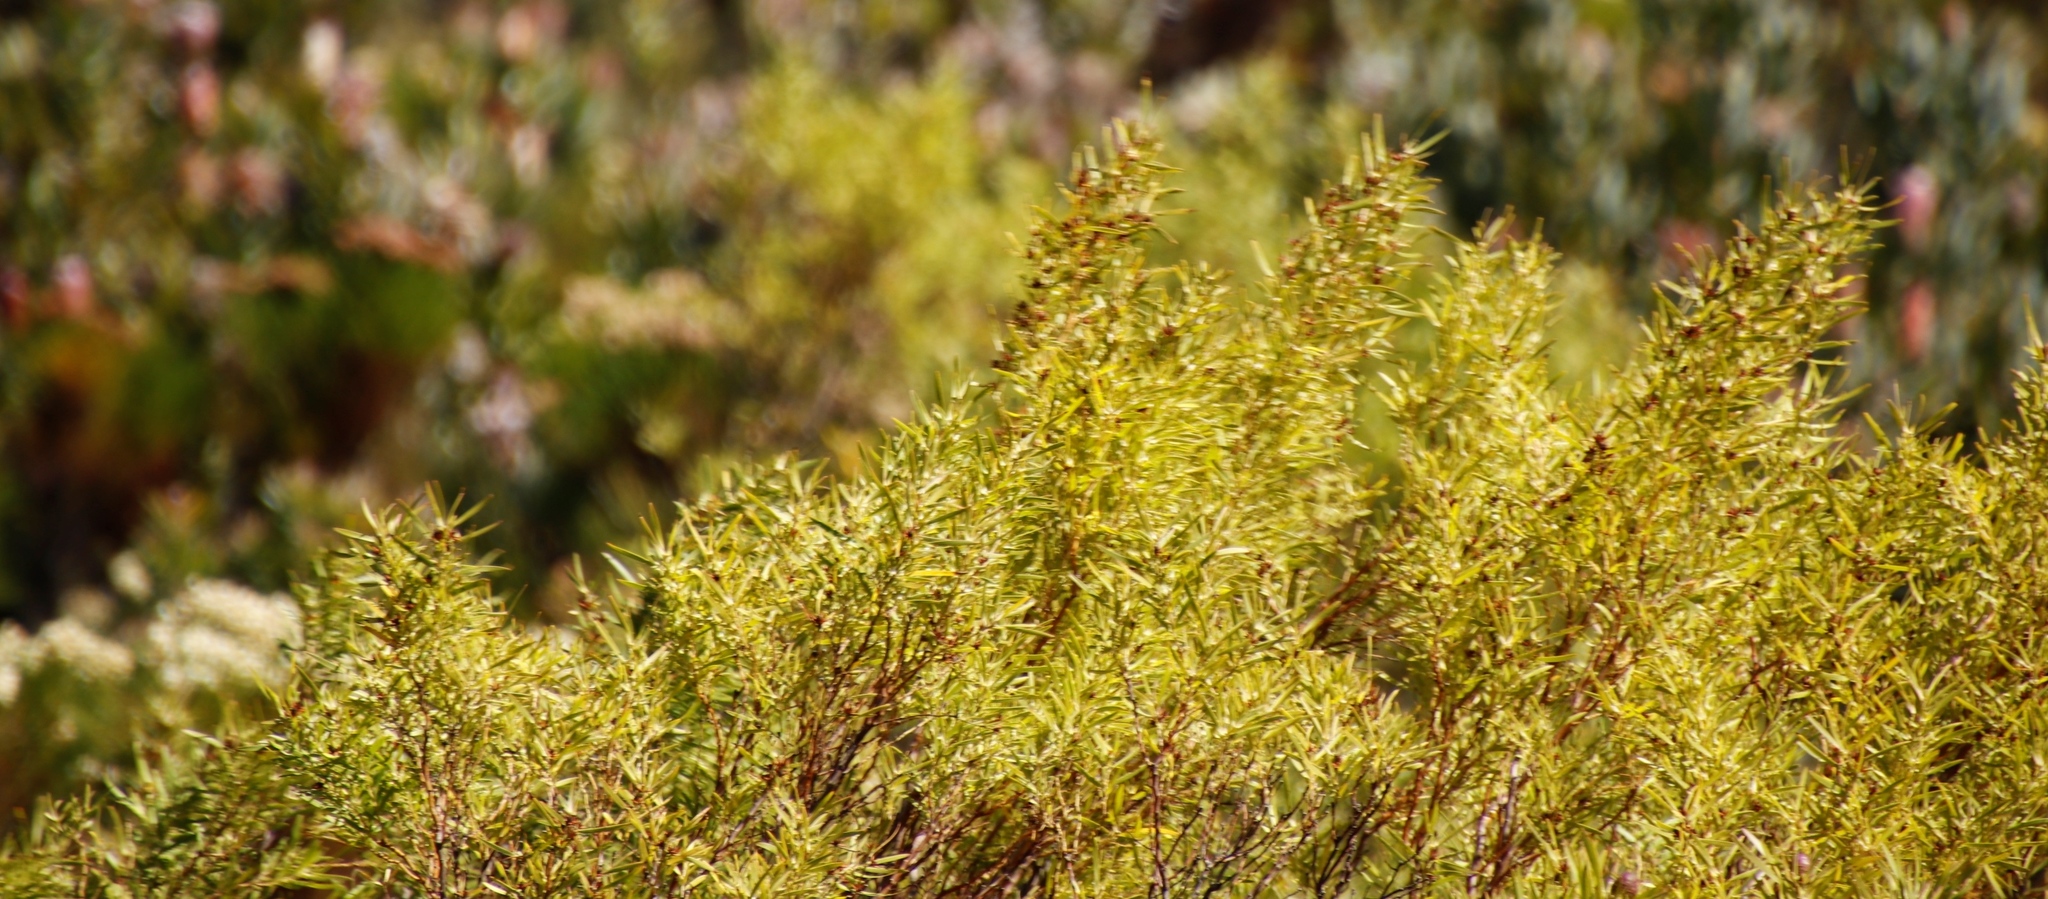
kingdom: Plantae
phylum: Tracheophyta
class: Magnoliopsida
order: Proteales
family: Proteaceae
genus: Leucadendron
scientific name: Leucadendron salicifolium
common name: Common stream conebush
